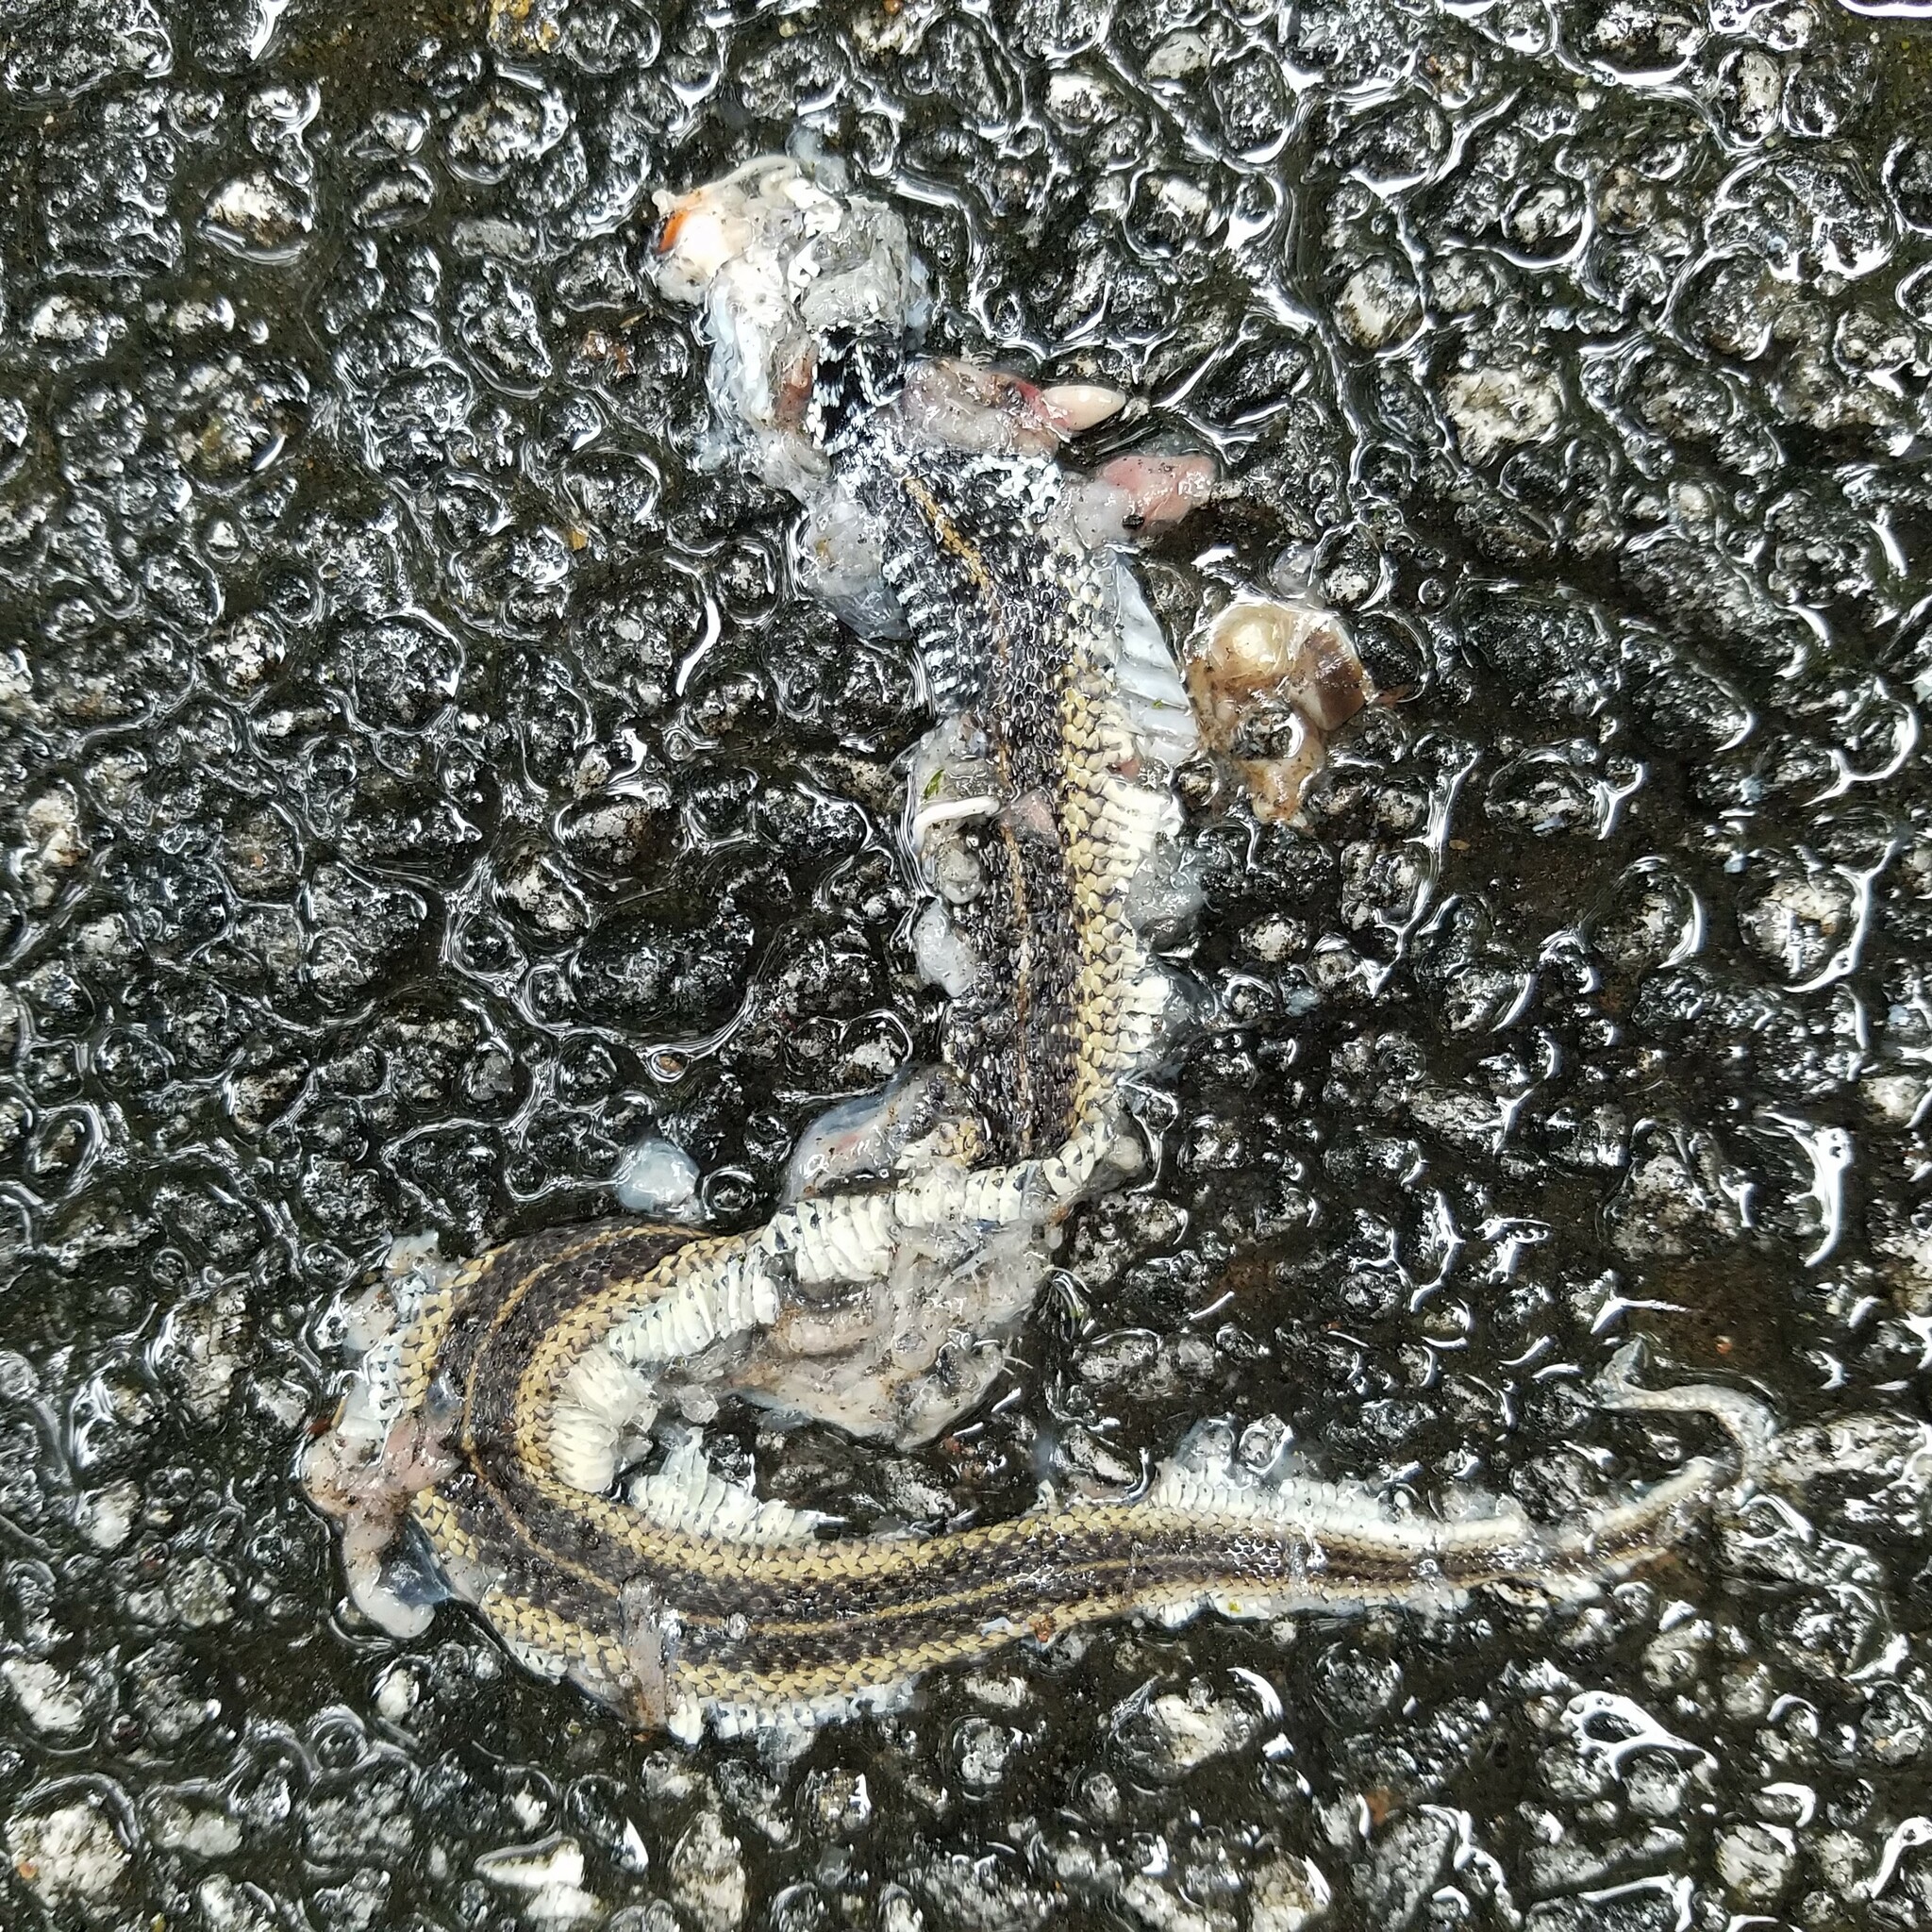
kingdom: Animalia
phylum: Chordata
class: Squamata
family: Colubridae
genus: Thamnophis
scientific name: Thamnophis sirtalis
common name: Common garter snake
